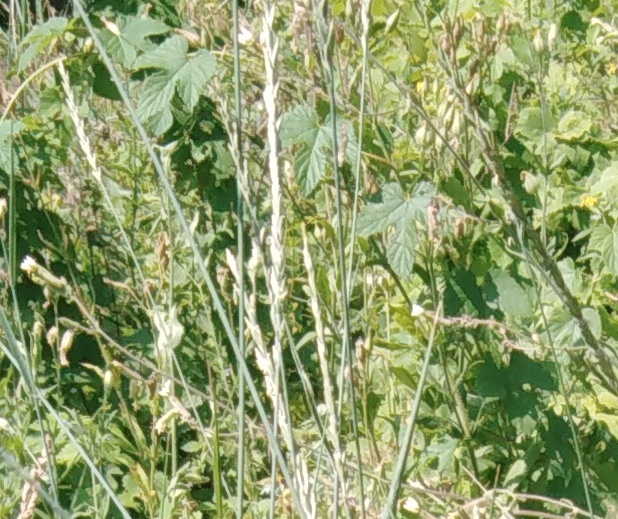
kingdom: Plantae
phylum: Tracheophyta
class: Magnoliopsida
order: Rosales
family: Cannabaceae
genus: Humulus
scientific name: Humulus lupulus
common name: Hop
